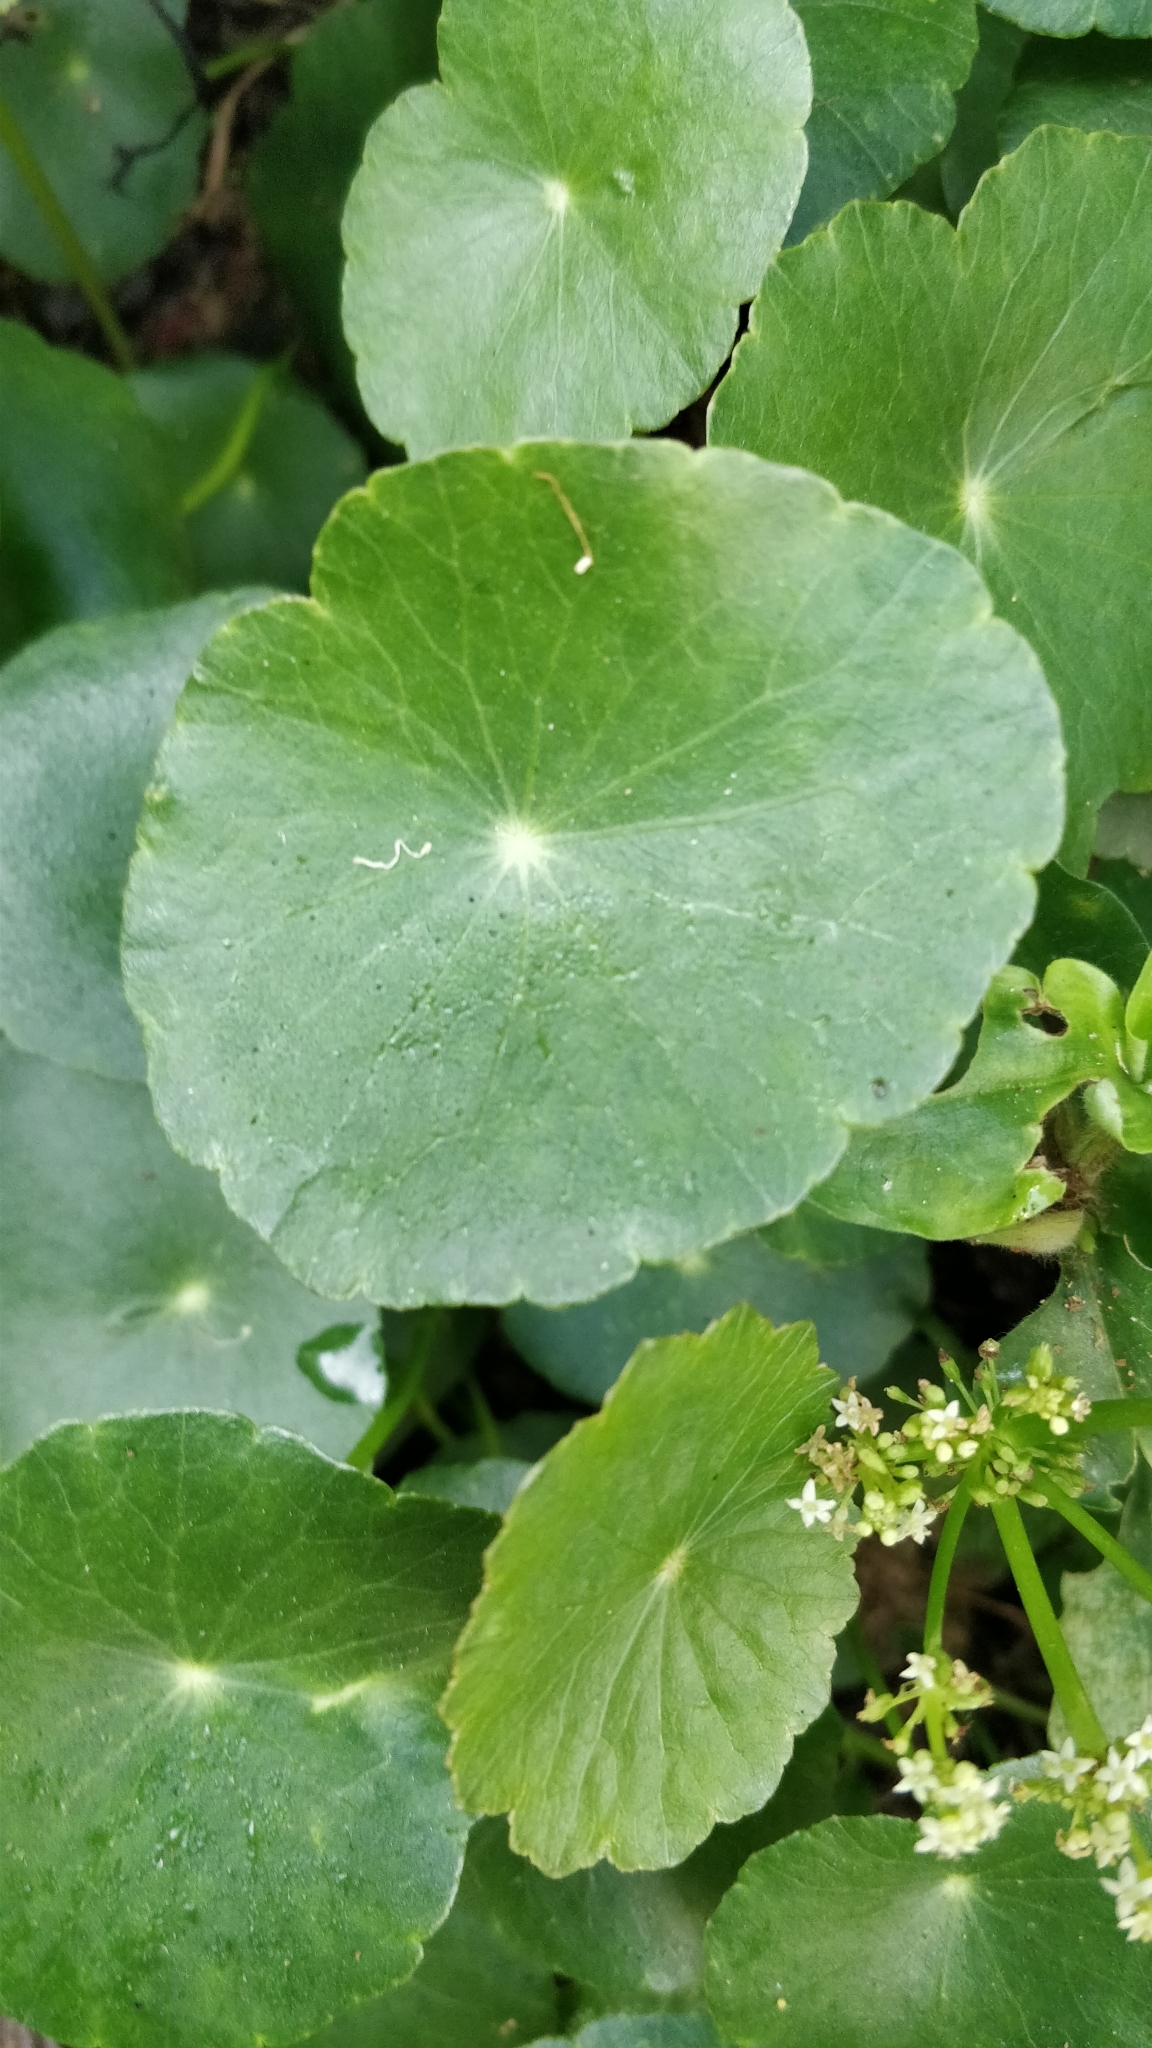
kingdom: Plantae
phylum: Tracheophyta
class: Magnoliopsida
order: Apiales
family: Araliaceae
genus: Hydrocotyle
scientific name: Hydrocotyle bonariensis
